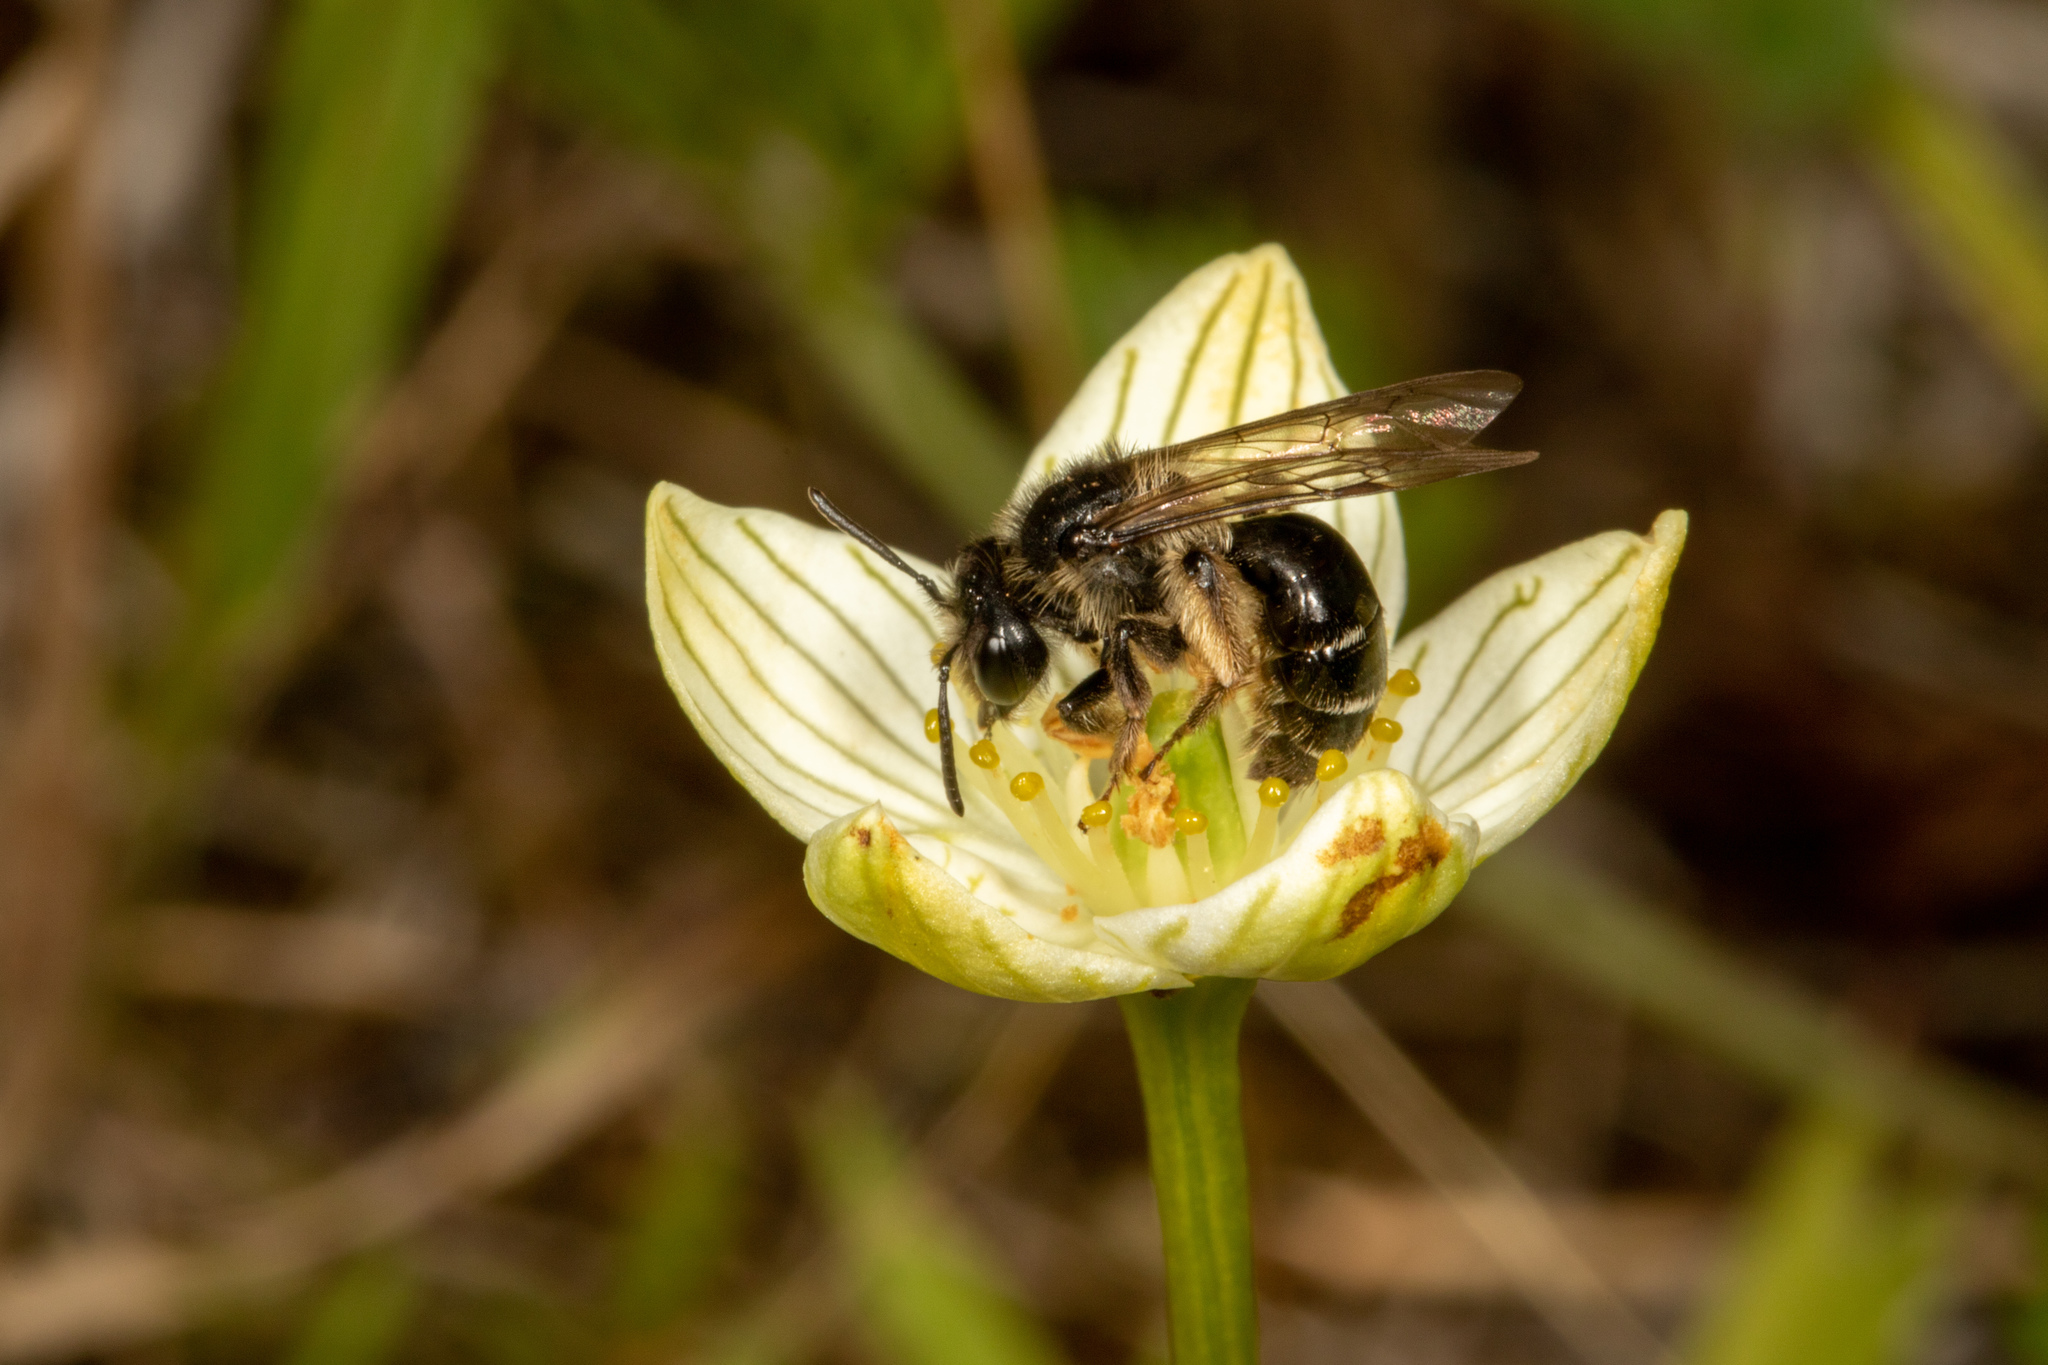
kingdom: Animalia
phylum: Arthropoda
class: Insecta
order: Hymenoptera
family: Andrenidae
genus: Andrena
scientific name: Andrena parnassiae
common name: Parnassia miner
